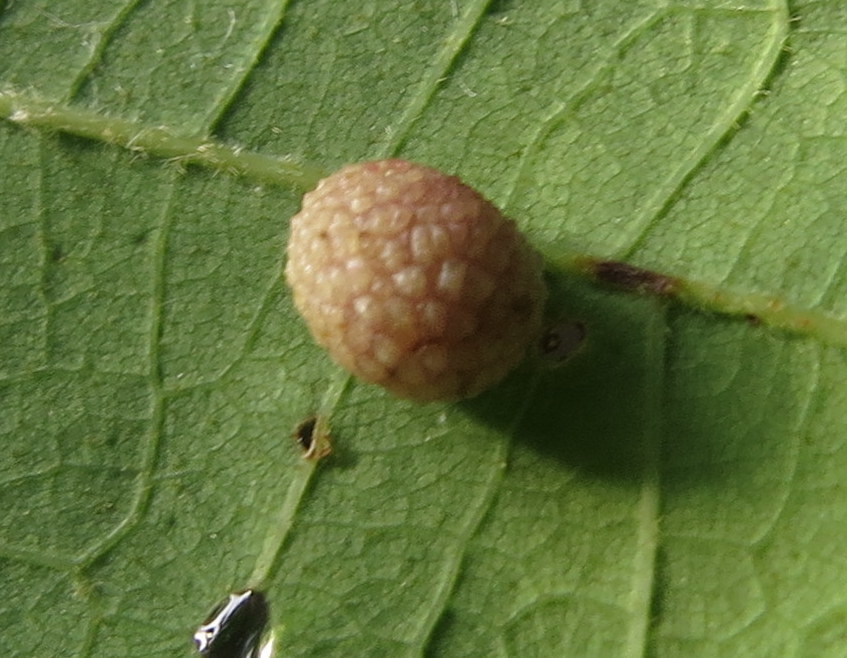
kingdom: Animalia
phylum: Arthropoda
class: Insecta
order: Hymenoptera
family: Cynipidae
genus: Acraspis
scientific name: Acraspis quercushirta
